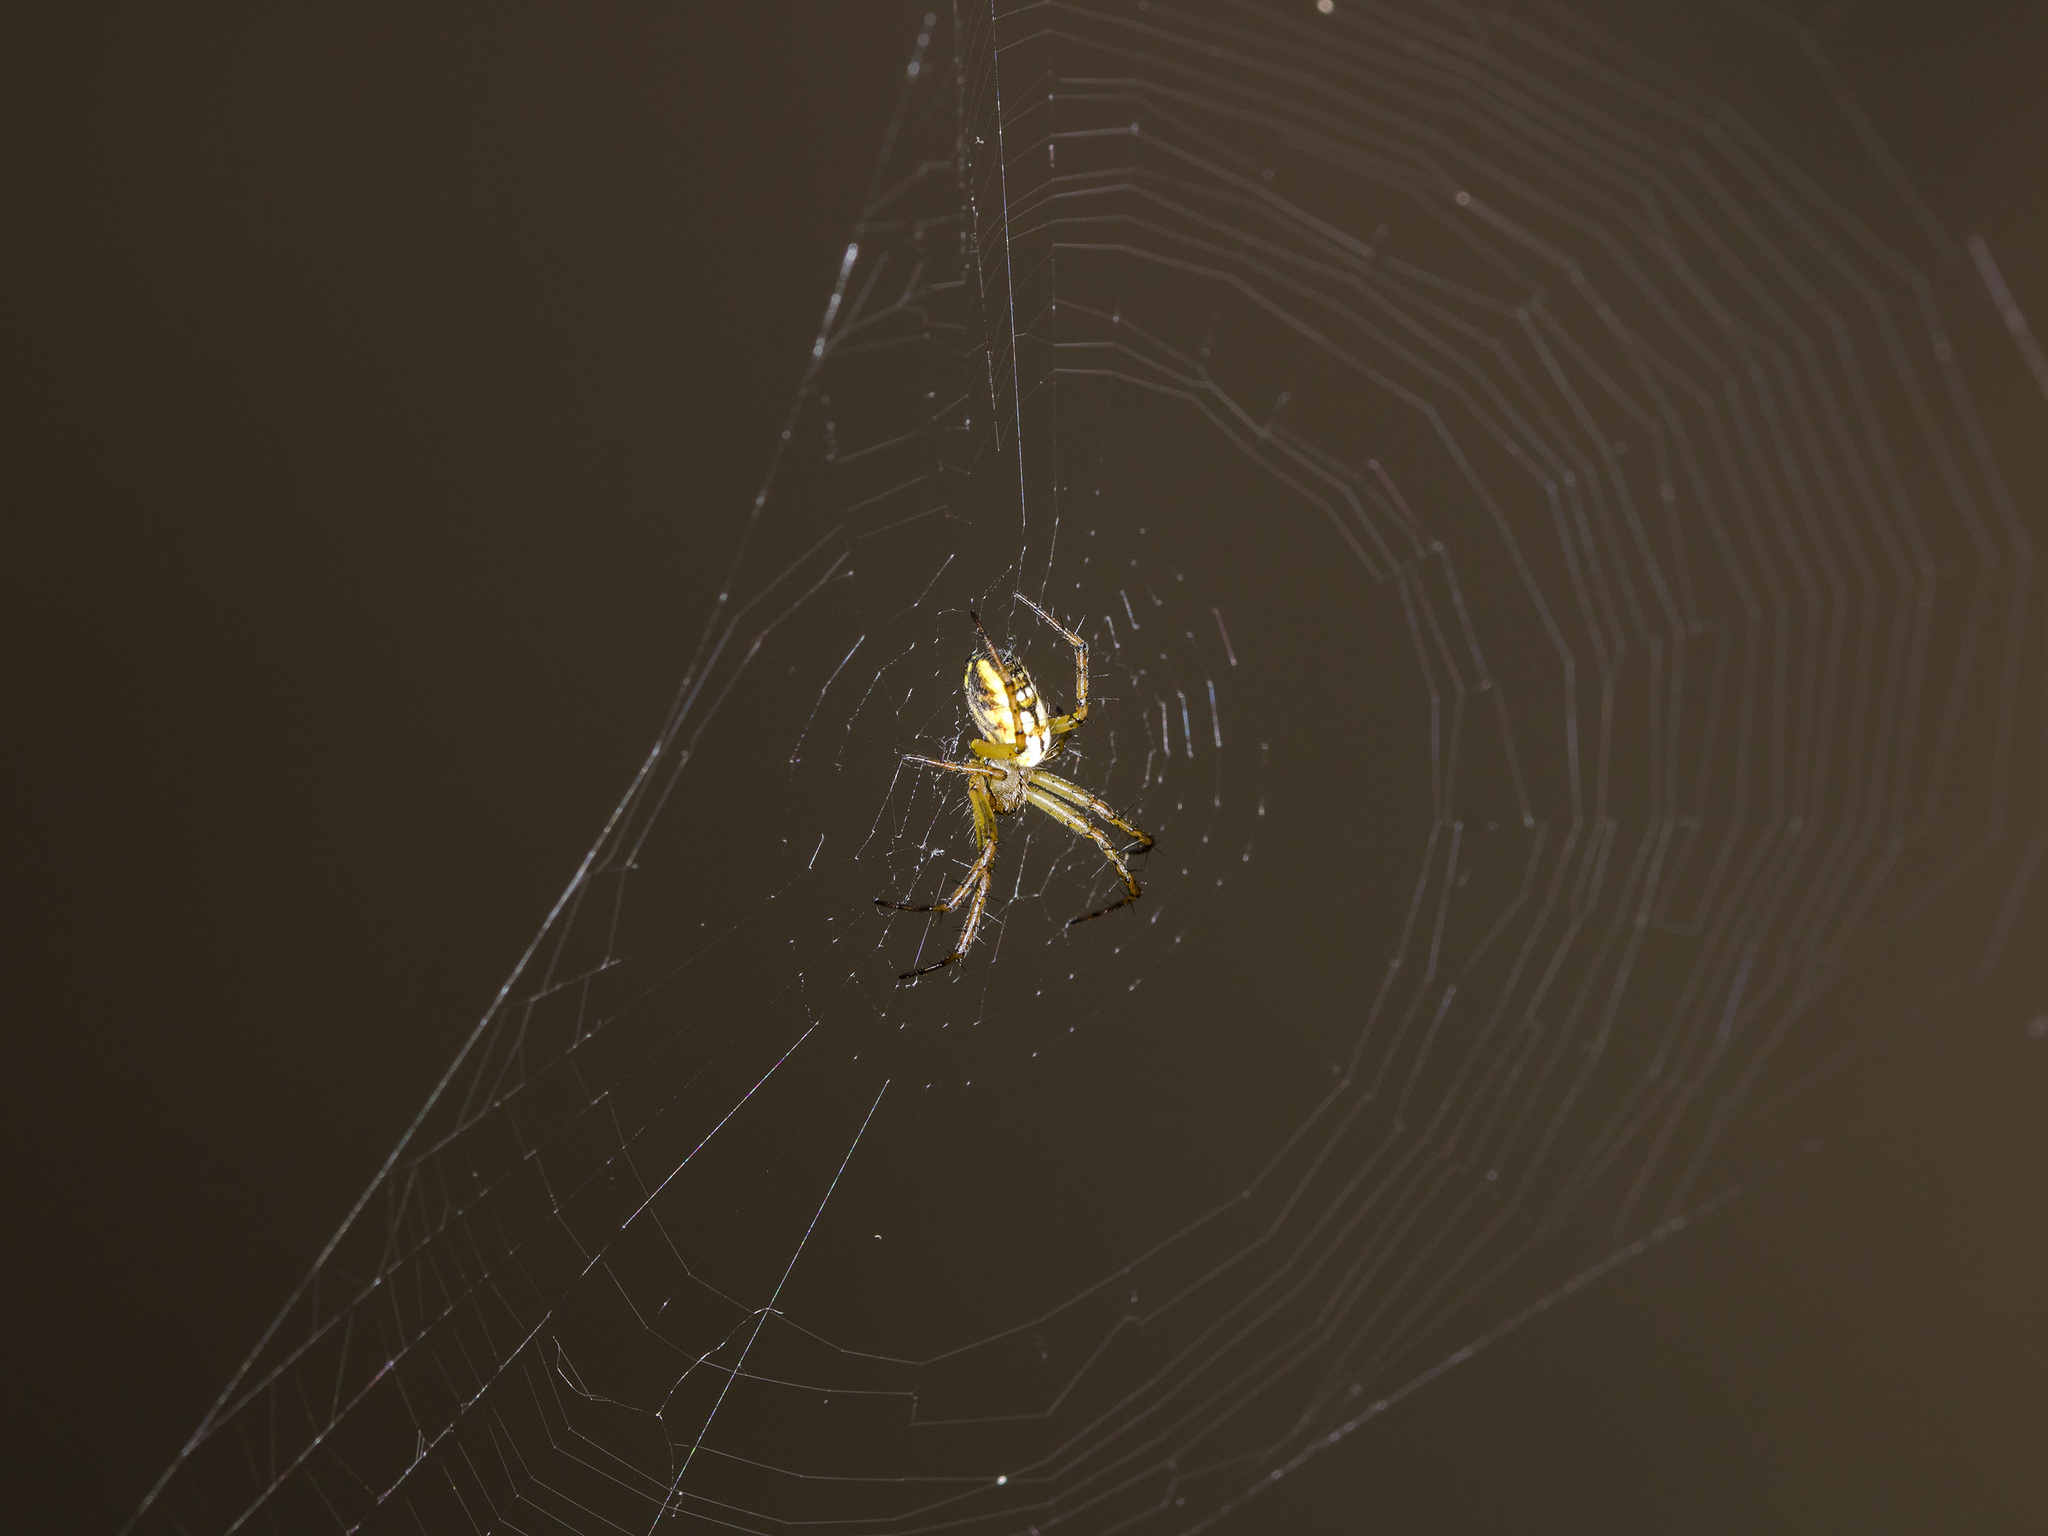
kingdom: Animalia
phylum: Arthropoda
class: Arachnida
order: Araneae
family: Araneidae
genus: Mangora
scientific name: Mangora acalypha
